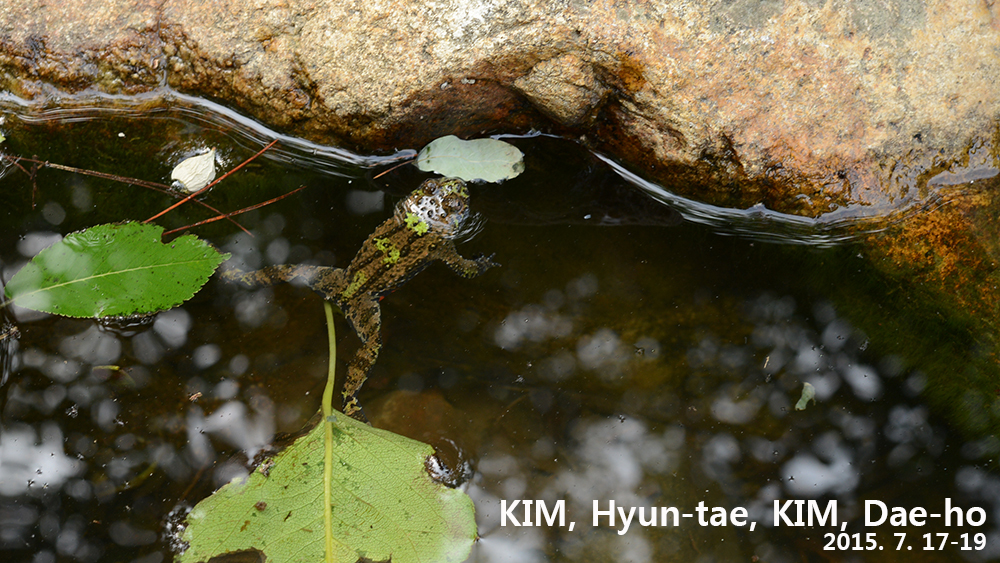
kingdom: Animalia
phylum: Chordata
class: Amphibia
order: Anura
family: Bombinatoridae
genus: Bombina
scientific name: Bombina orientalis
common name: Oriental firebelly toad
